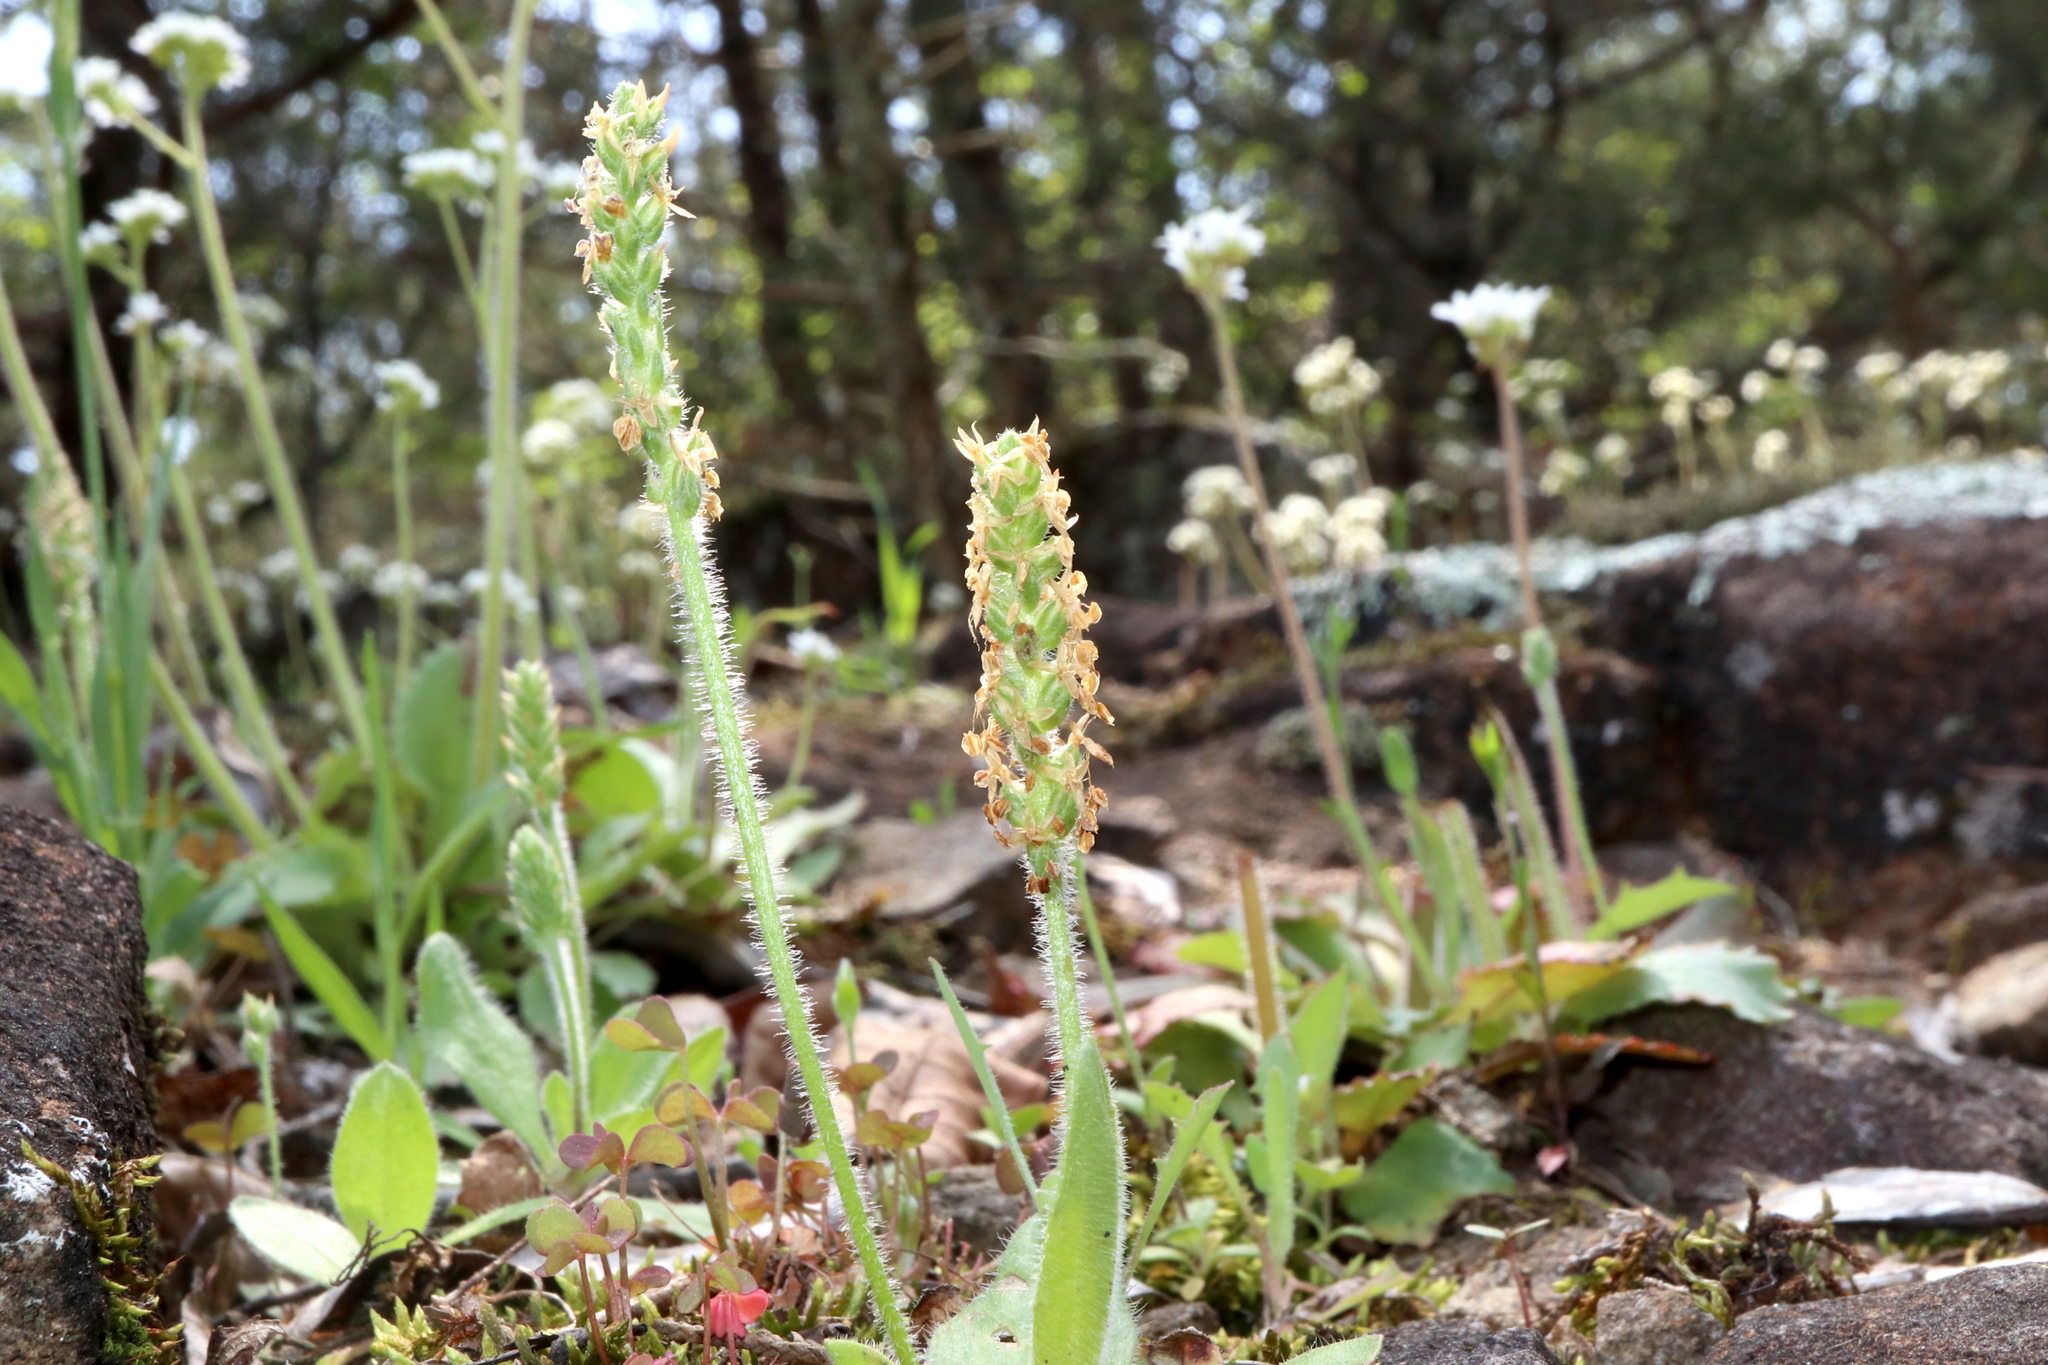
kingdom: Plantae
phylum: Tracheophyta
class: Magnoliopsida
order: Lamiales
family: Plantaginaceae
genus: Plantago
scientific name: Plantago virginica
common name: Hoary plantain
